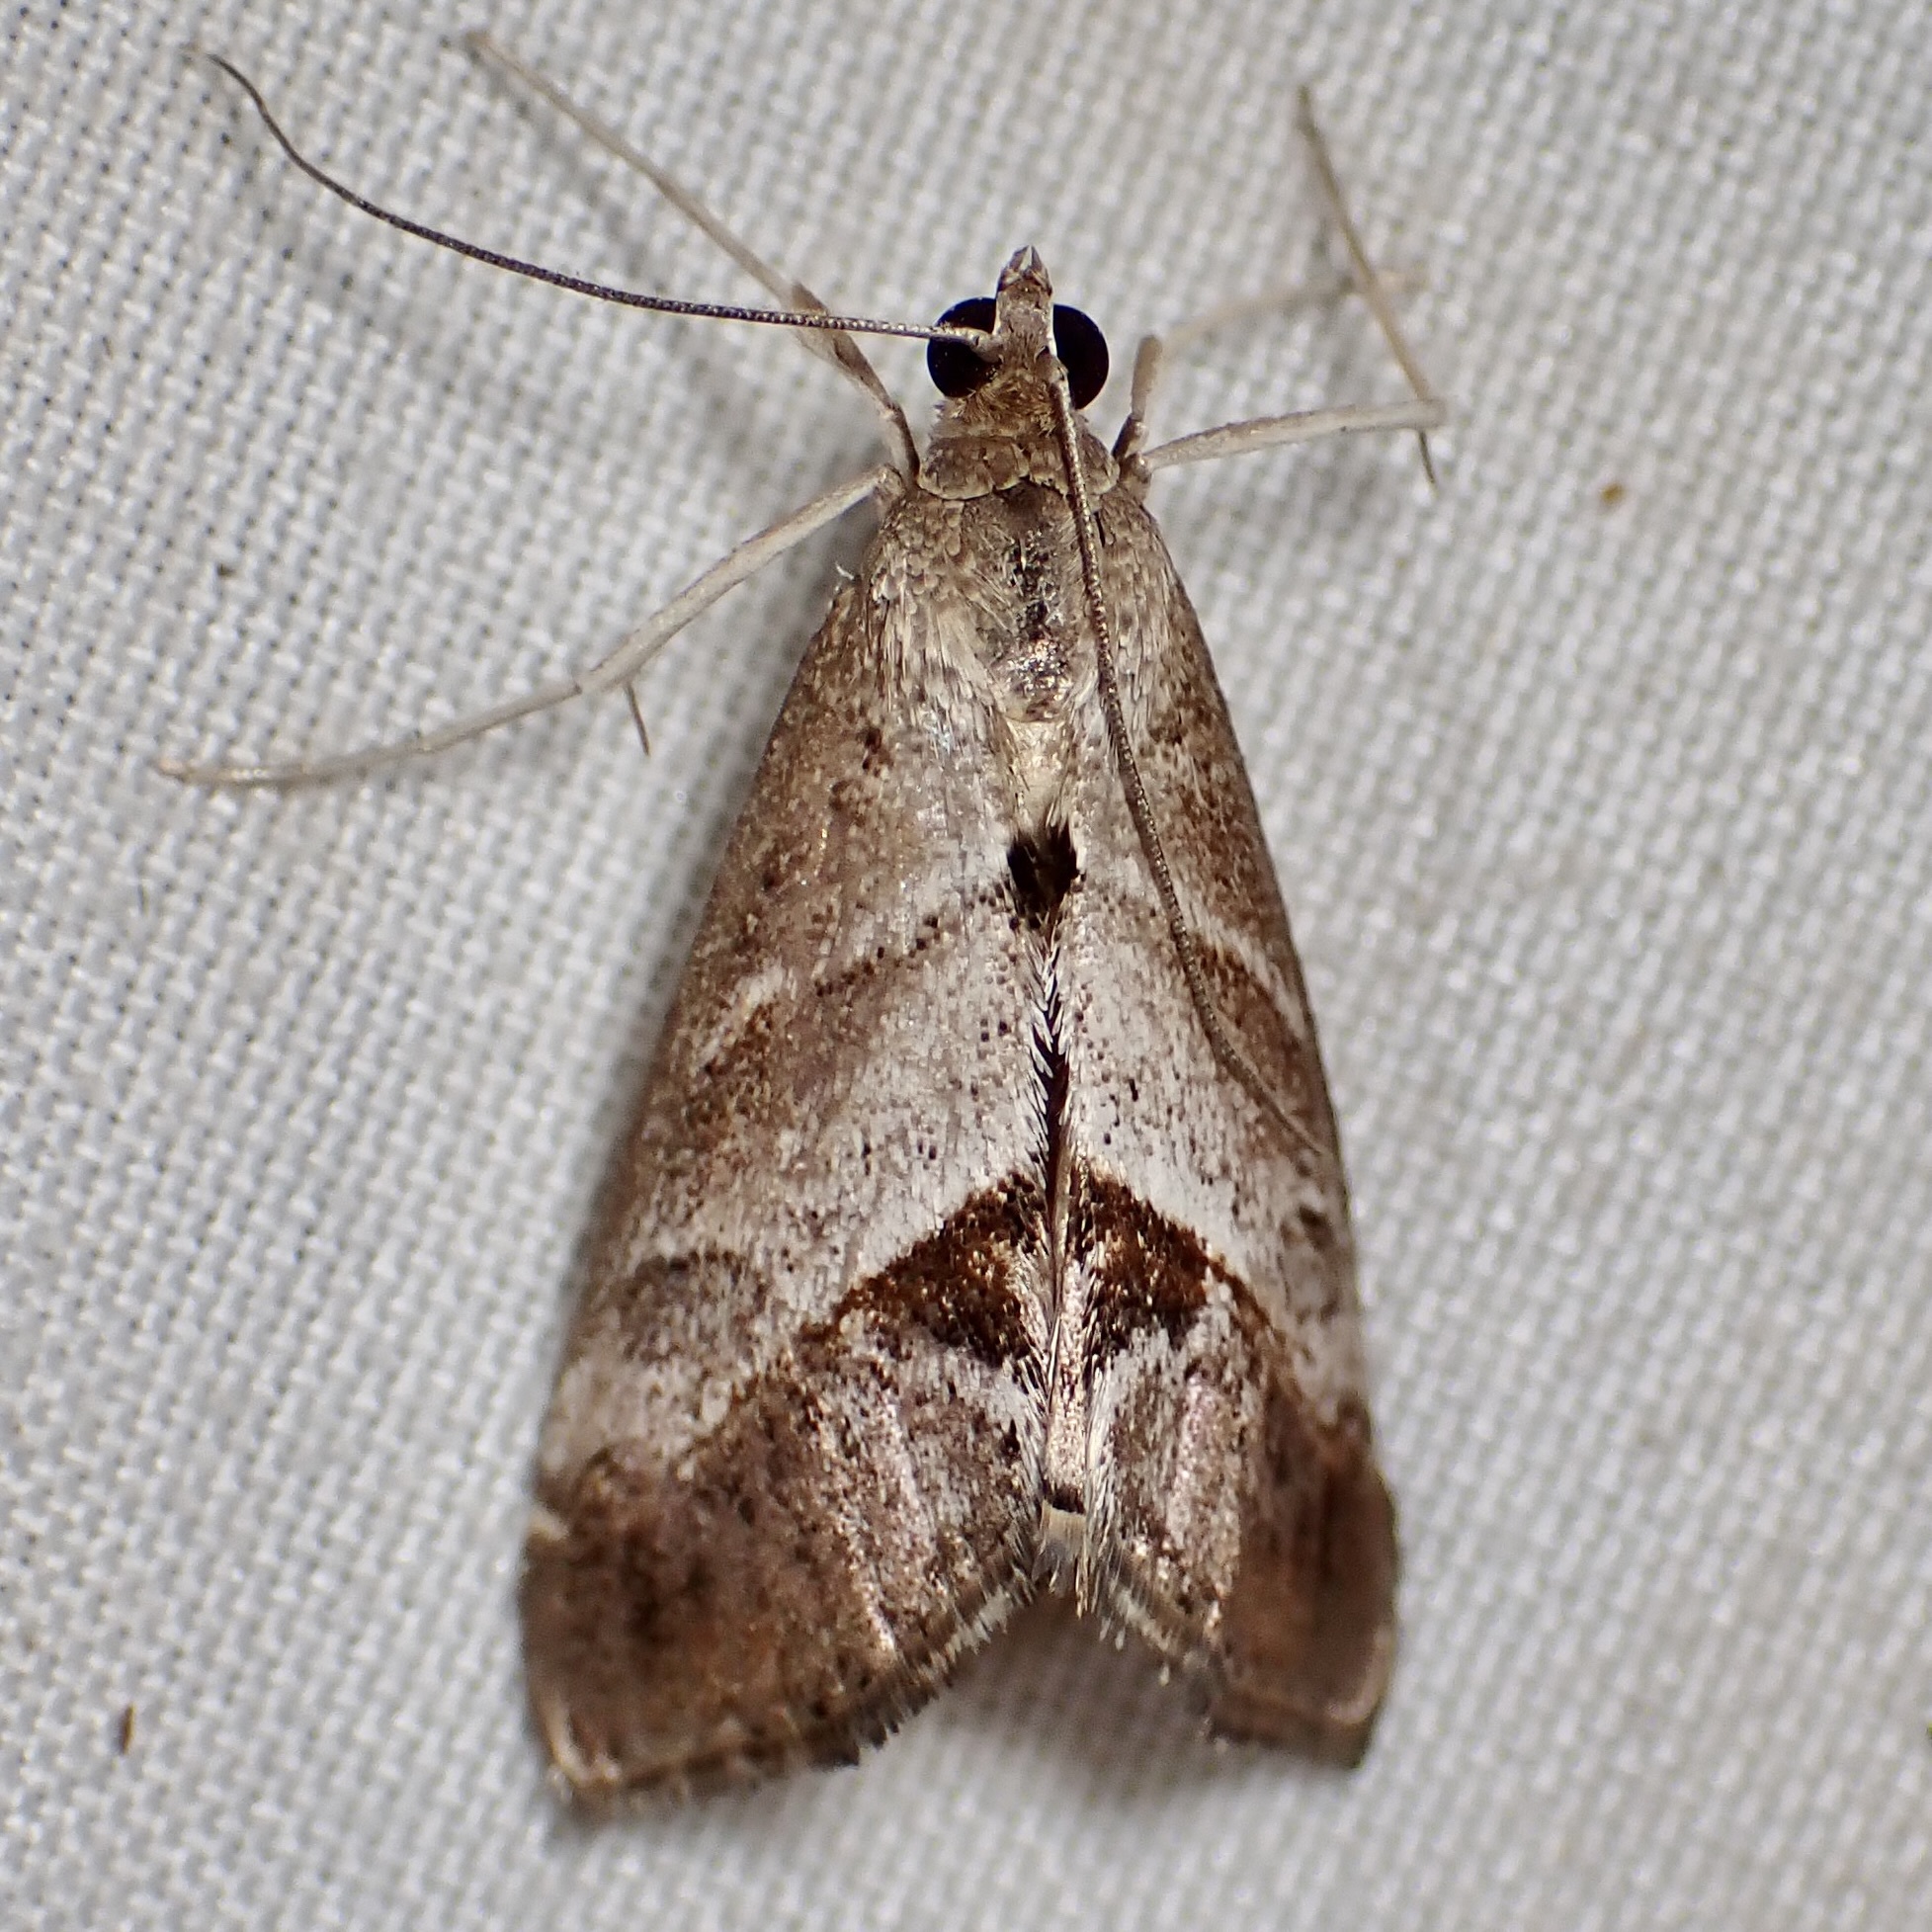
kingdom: Animalia
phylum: Arthropoda
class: Insecta
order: Lepidoptera
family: Crambidae
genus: Evergestis
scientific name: Evergestis triangulalis
